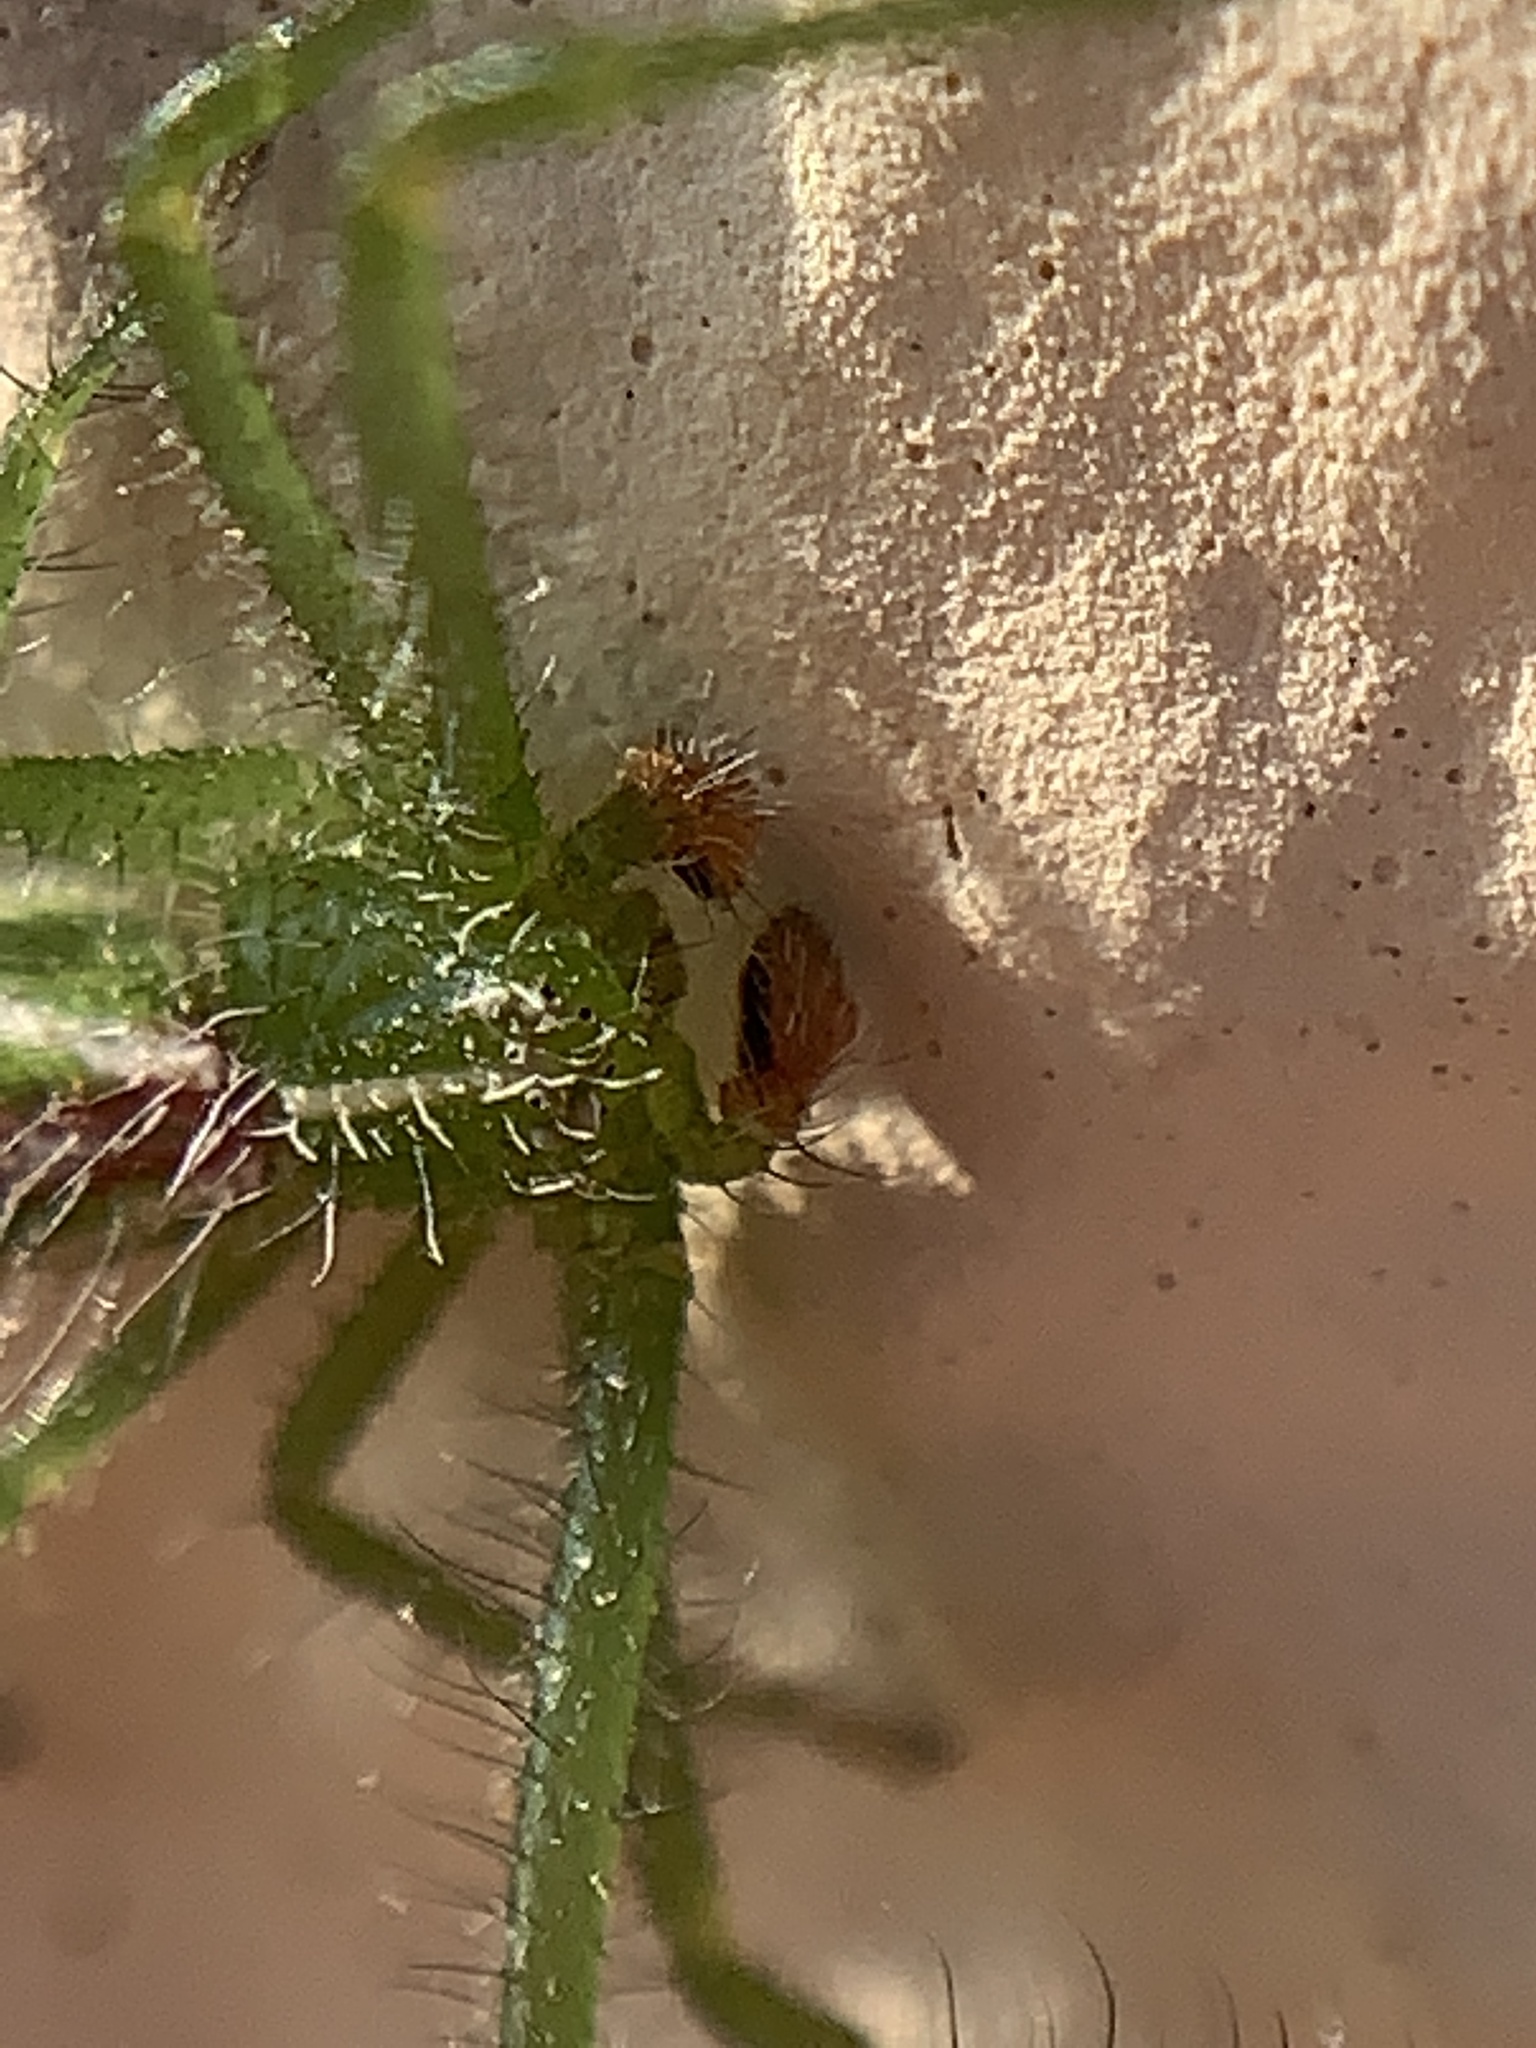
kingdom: Animalia
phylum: Arthropoda
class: Arachnida
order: Araneae
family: Thomisidae
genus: Heriaeus
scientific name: Heriaeus oblongus
